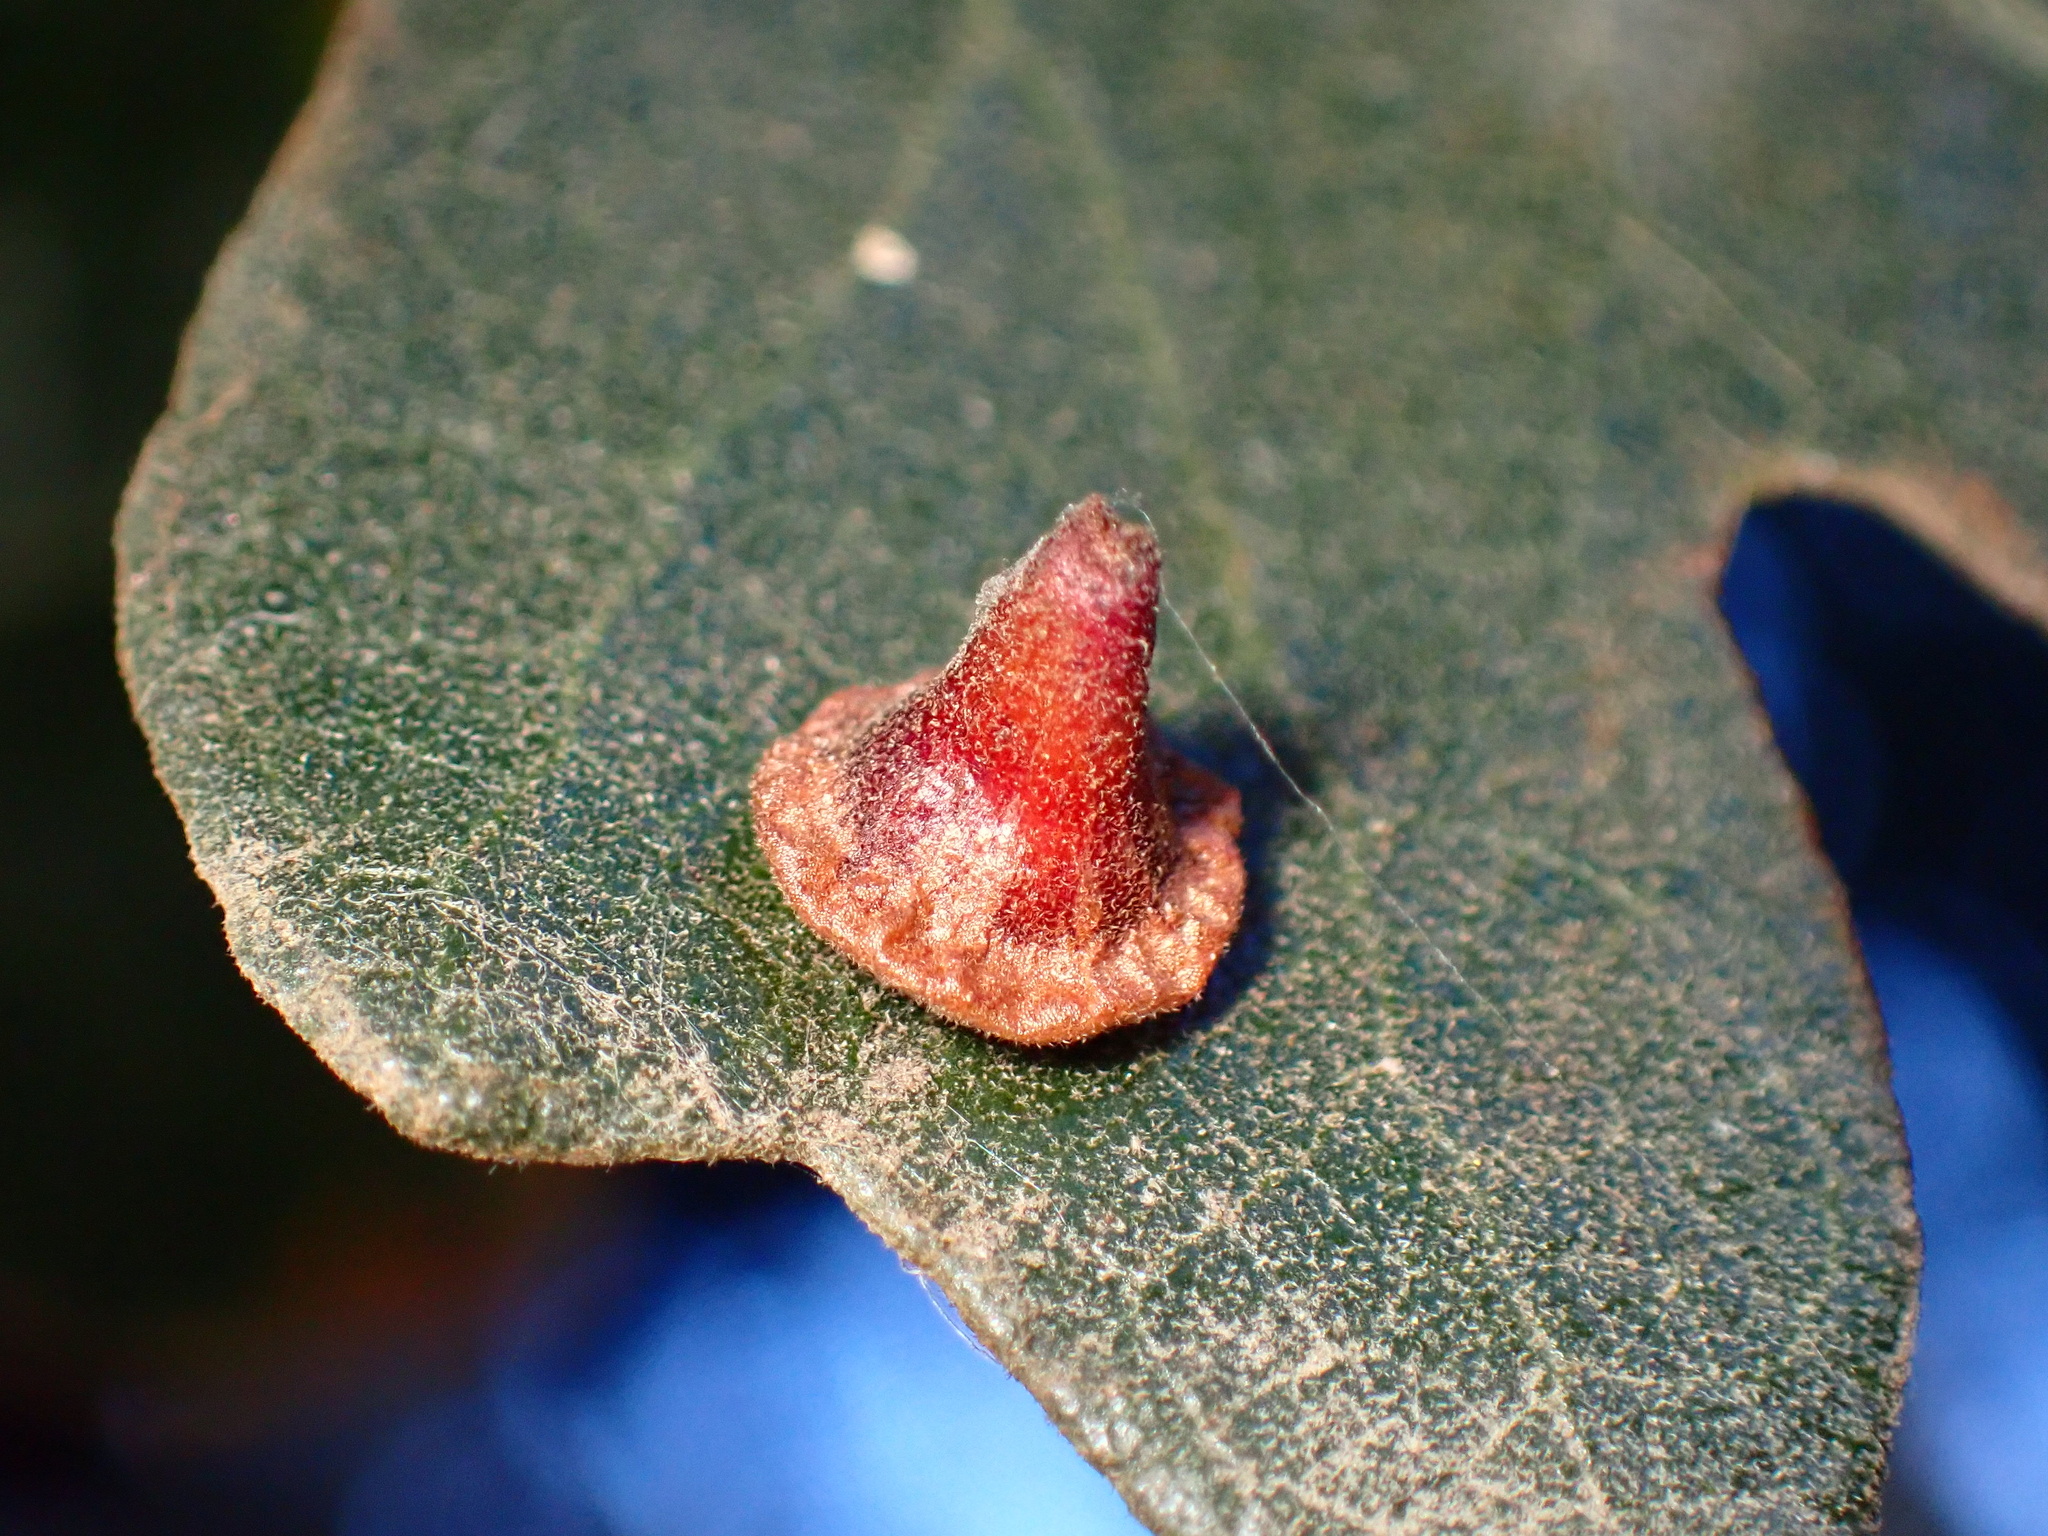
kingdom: Animalia
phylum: Arthropoda
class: Insecta
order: Hymenoptera
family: Cynipidae
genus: Andricus
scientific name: Andricus
